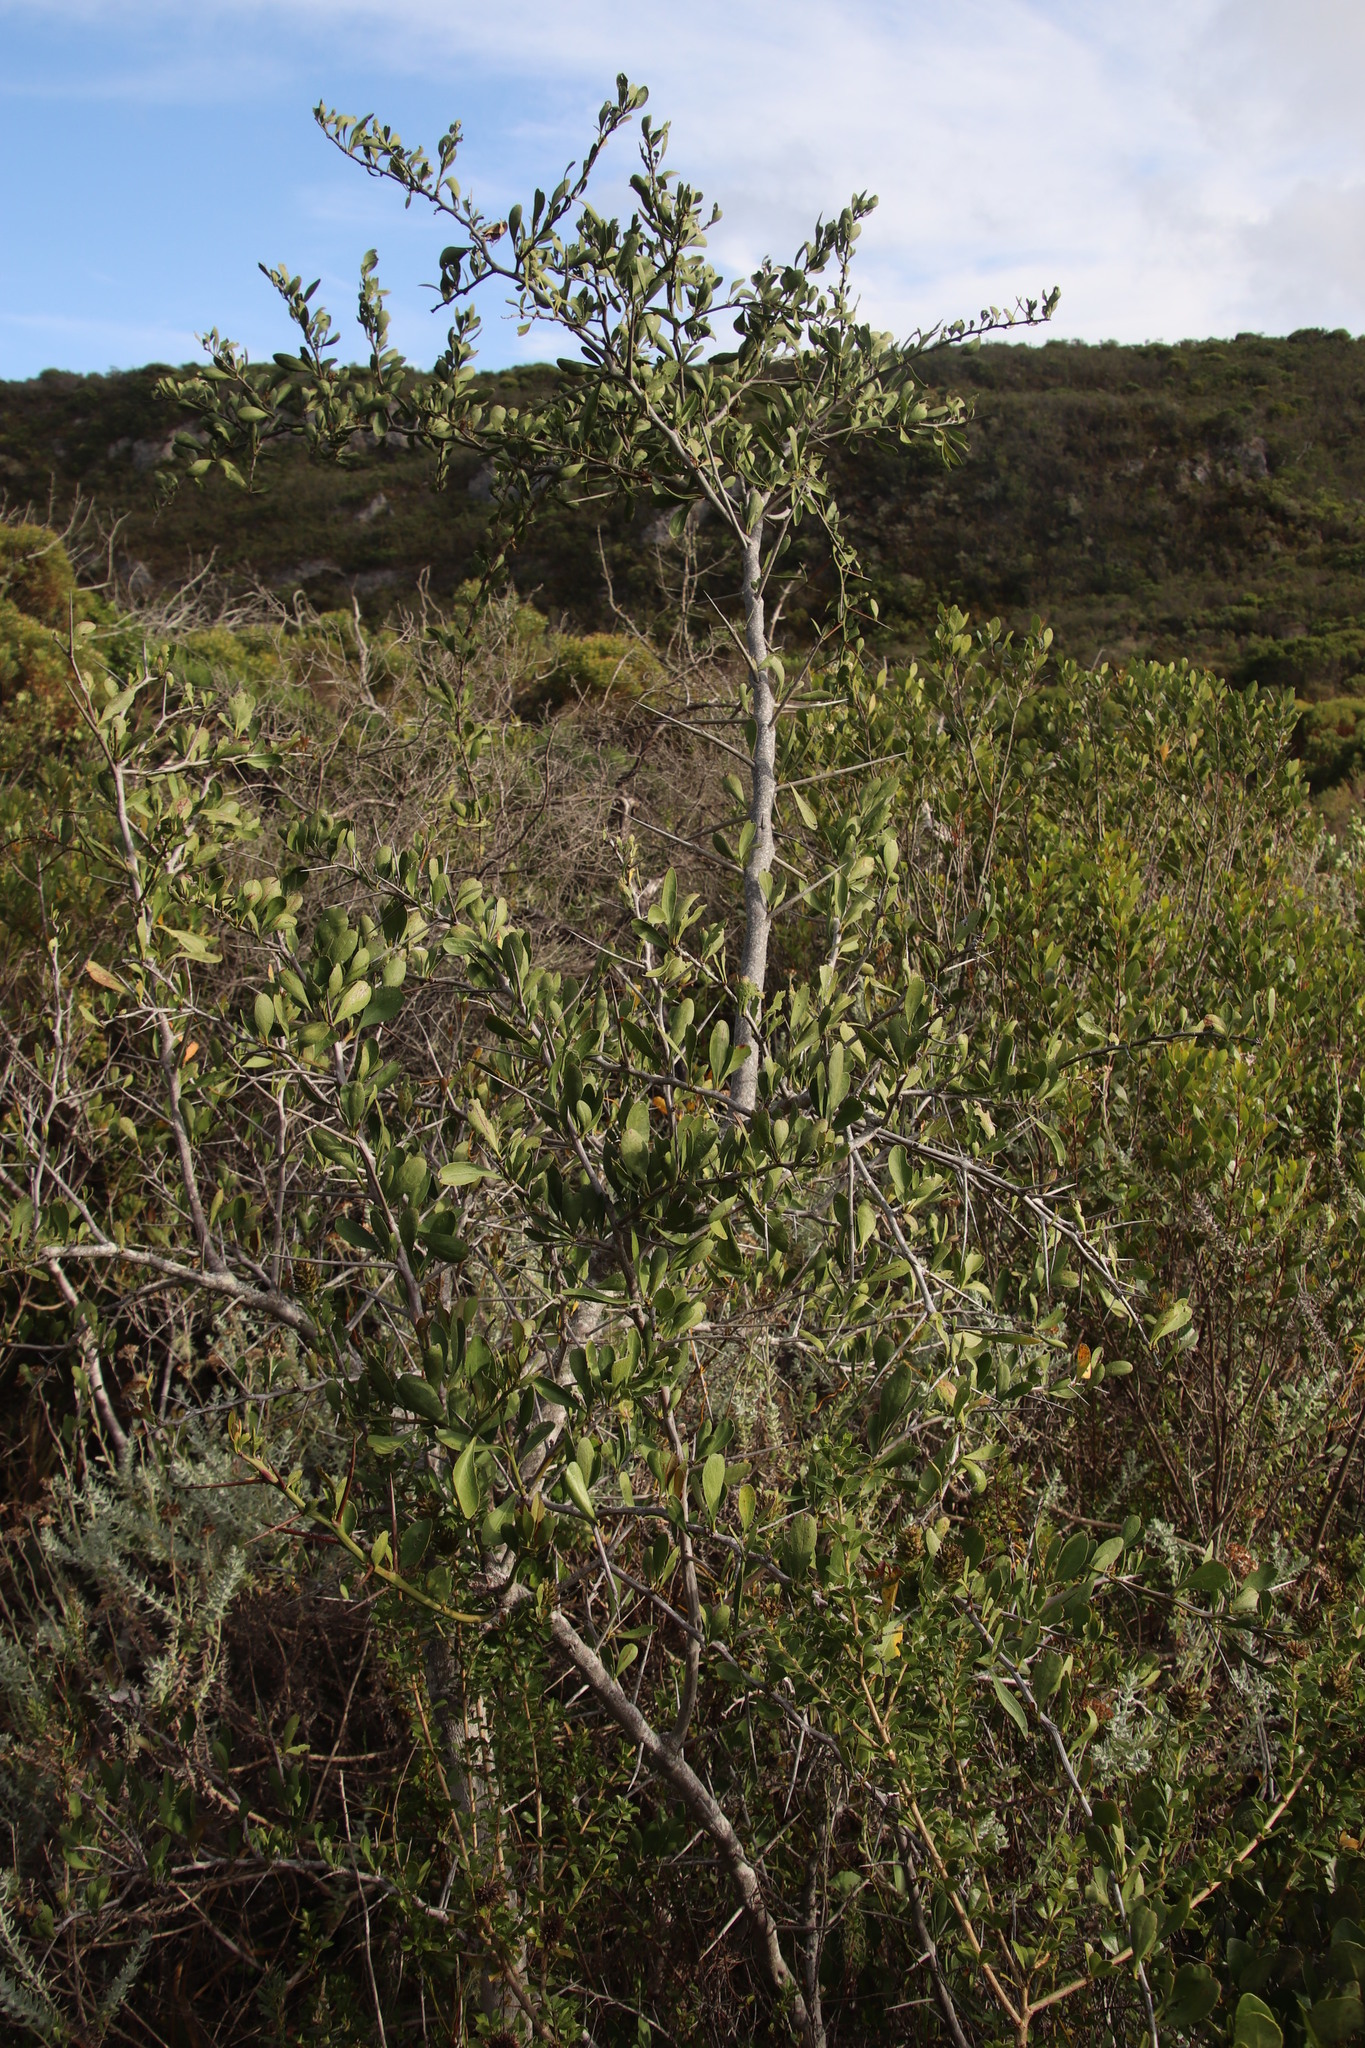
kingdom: Plantae
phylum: Tracheophyta
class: Magnoliopsida
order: Celastrales
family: Celastraceae
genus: Gymnosporia
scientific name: Gymnosporia buxifolia
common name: Common spike-thorn
